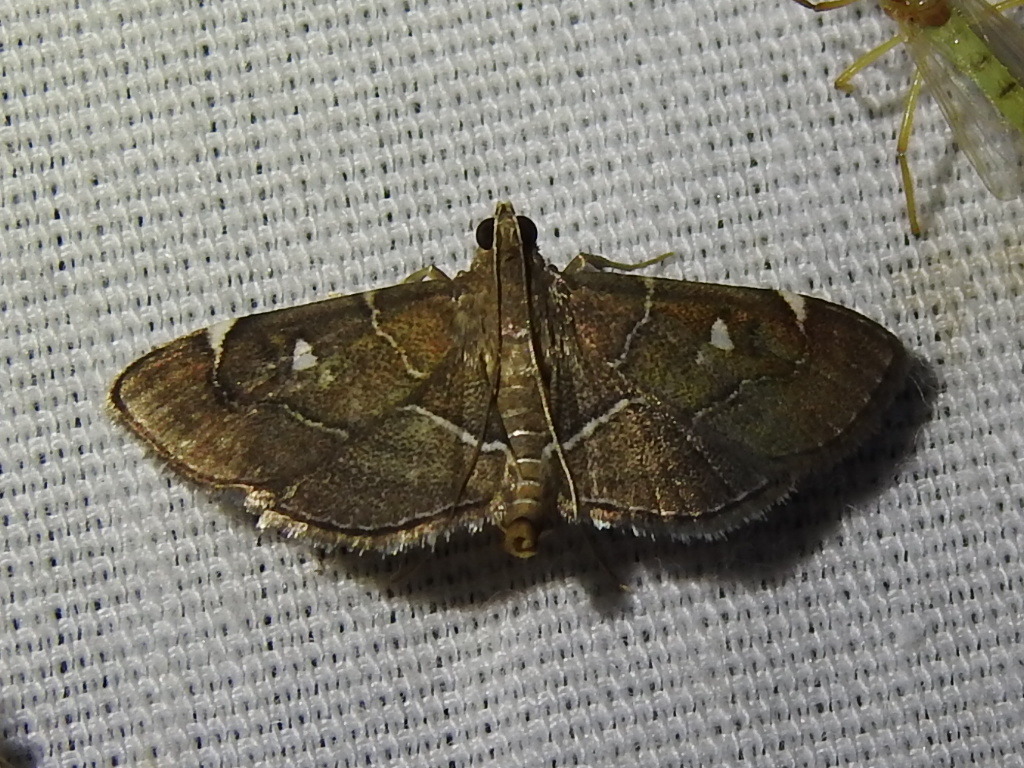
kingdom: Animalia
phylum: Arthropoda
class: Insecta
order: Lepidoptera
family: Crambidae
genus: Lamprosema
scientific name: Lamprosema victoriae
